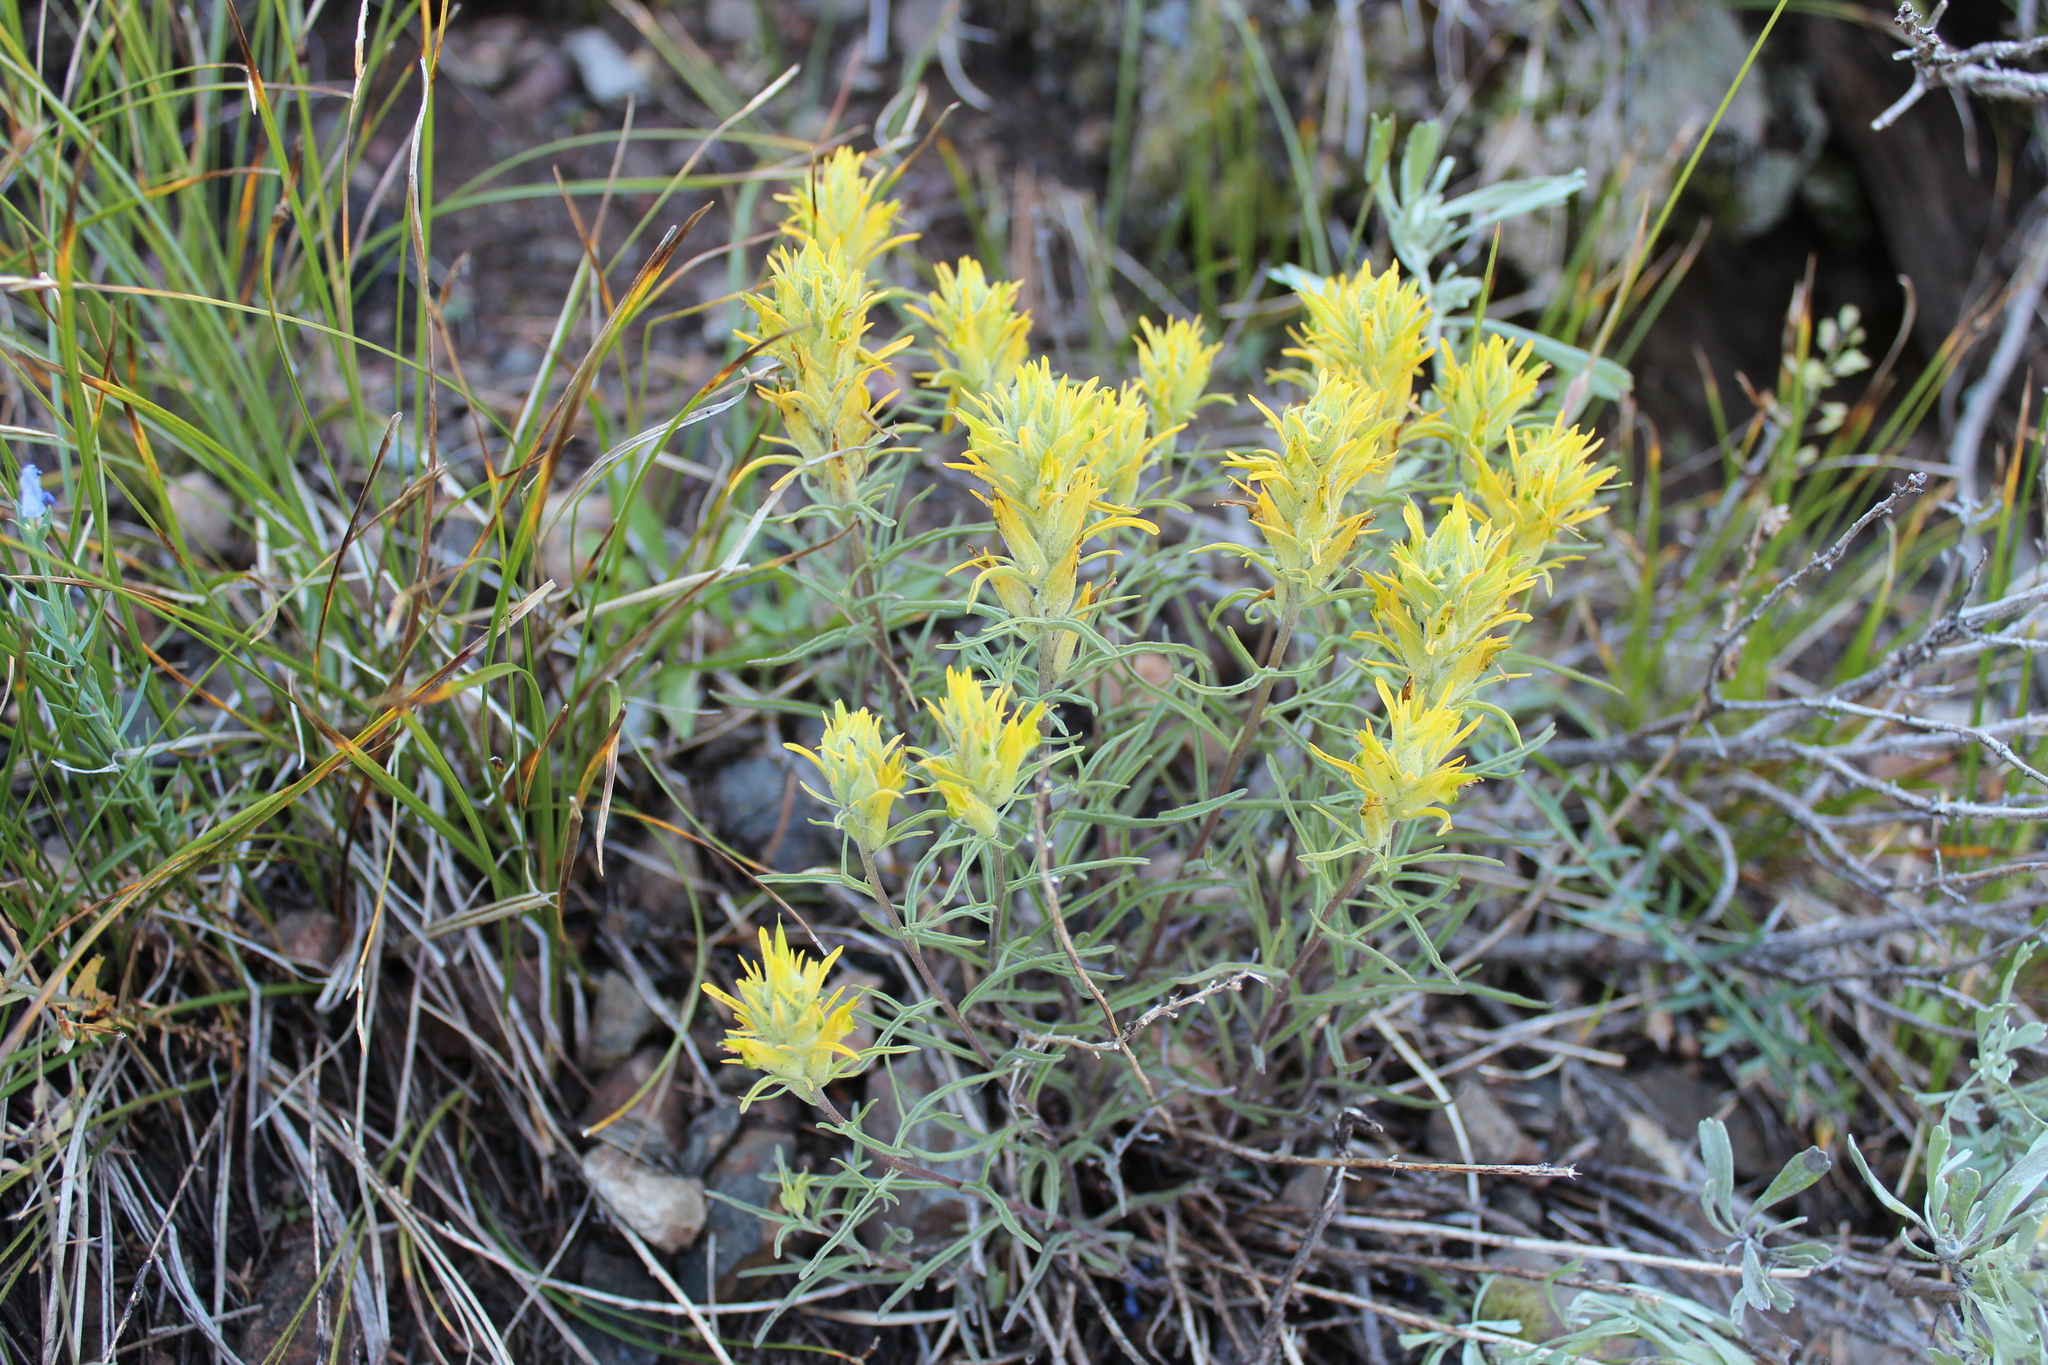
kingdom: Plantae
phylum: Tracheophyta
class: Magnoliopsida
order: Lamiales
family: Orobanchaceae
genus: Castilleja
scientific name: Castilleja flava
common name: Yellow paintbrush
